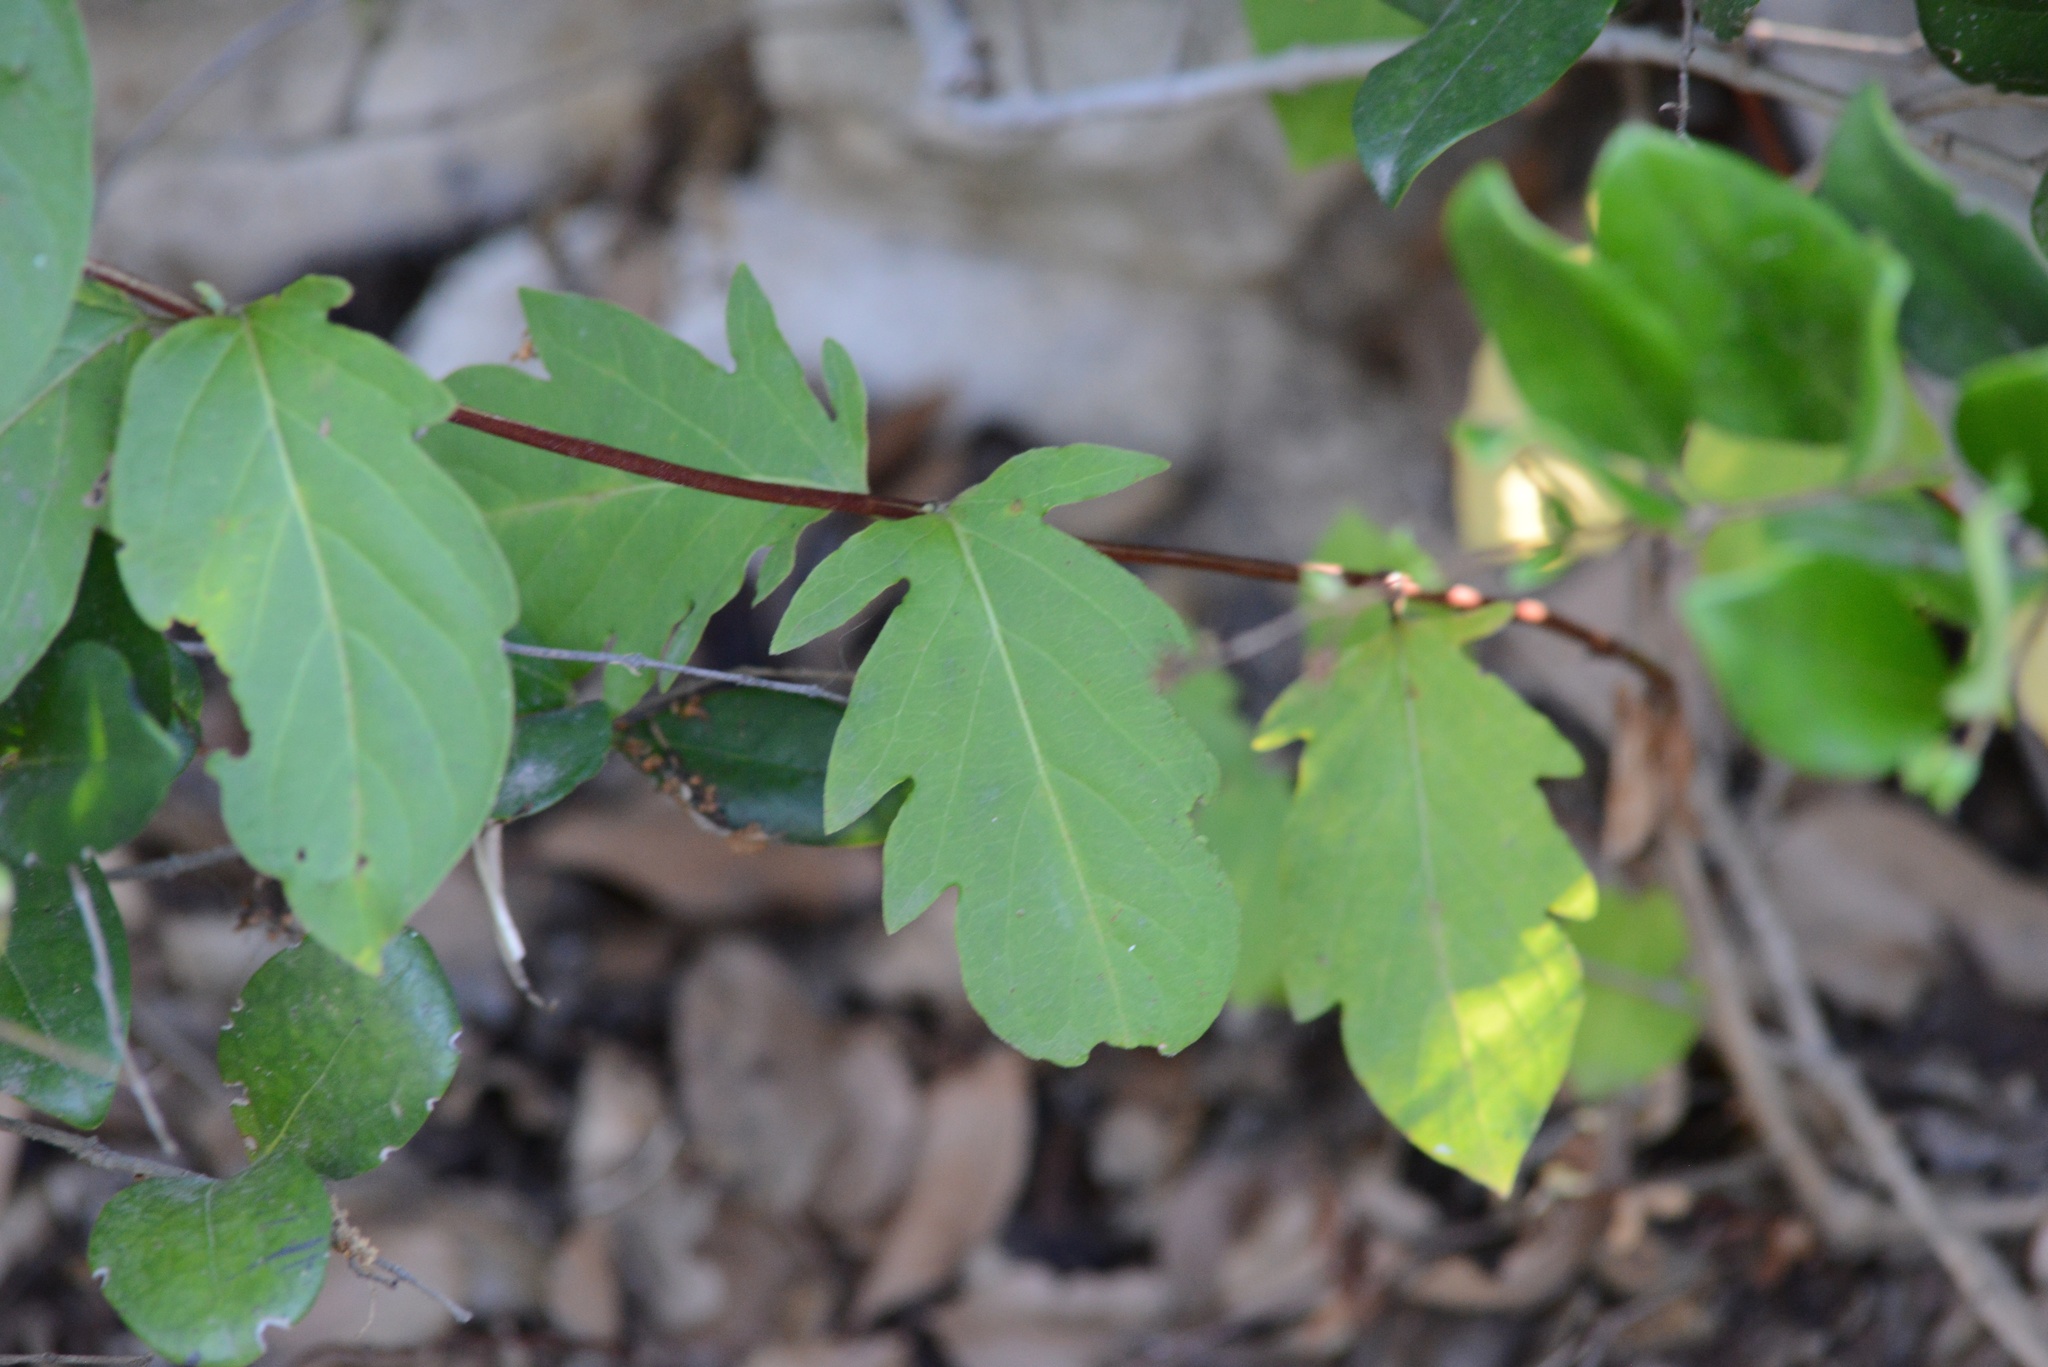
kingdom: Plantae
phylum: Tracheophyta
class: Magnoliopsida
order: Dipsacales
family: Caprifoliaceae
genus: Lonicera
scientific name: Lonicera japonica
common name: Japanese honeysuckle
